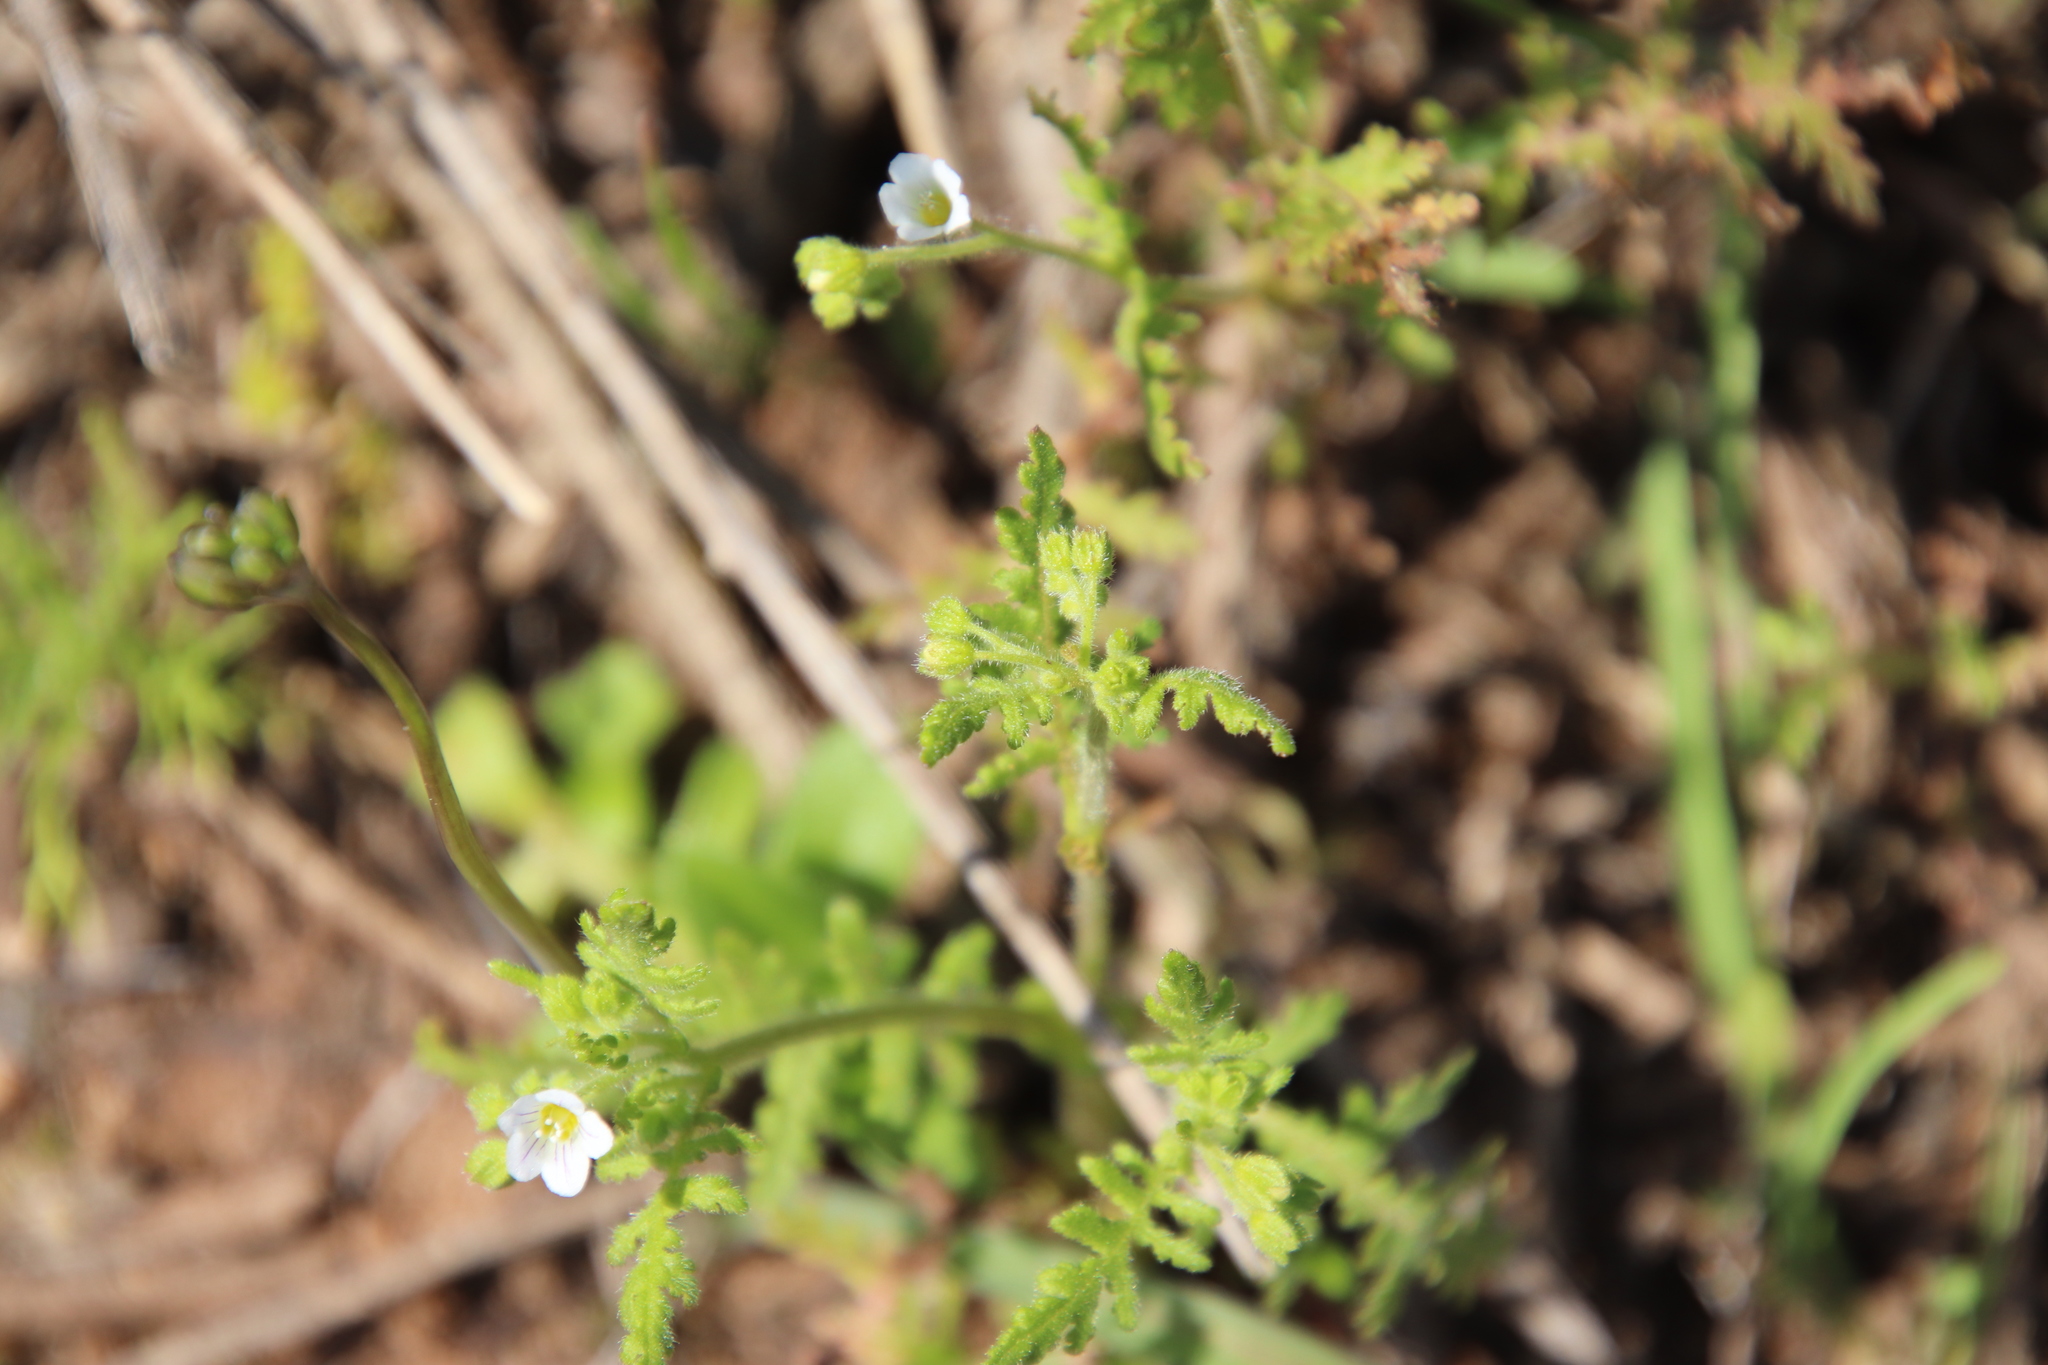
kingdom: Plantae
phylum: Tracheophyta
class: Magnoliopsida
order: Boraginales
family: Hydrophyllaceae
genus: Eucrypta
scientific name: Eucrypta chrysanthemifolia
